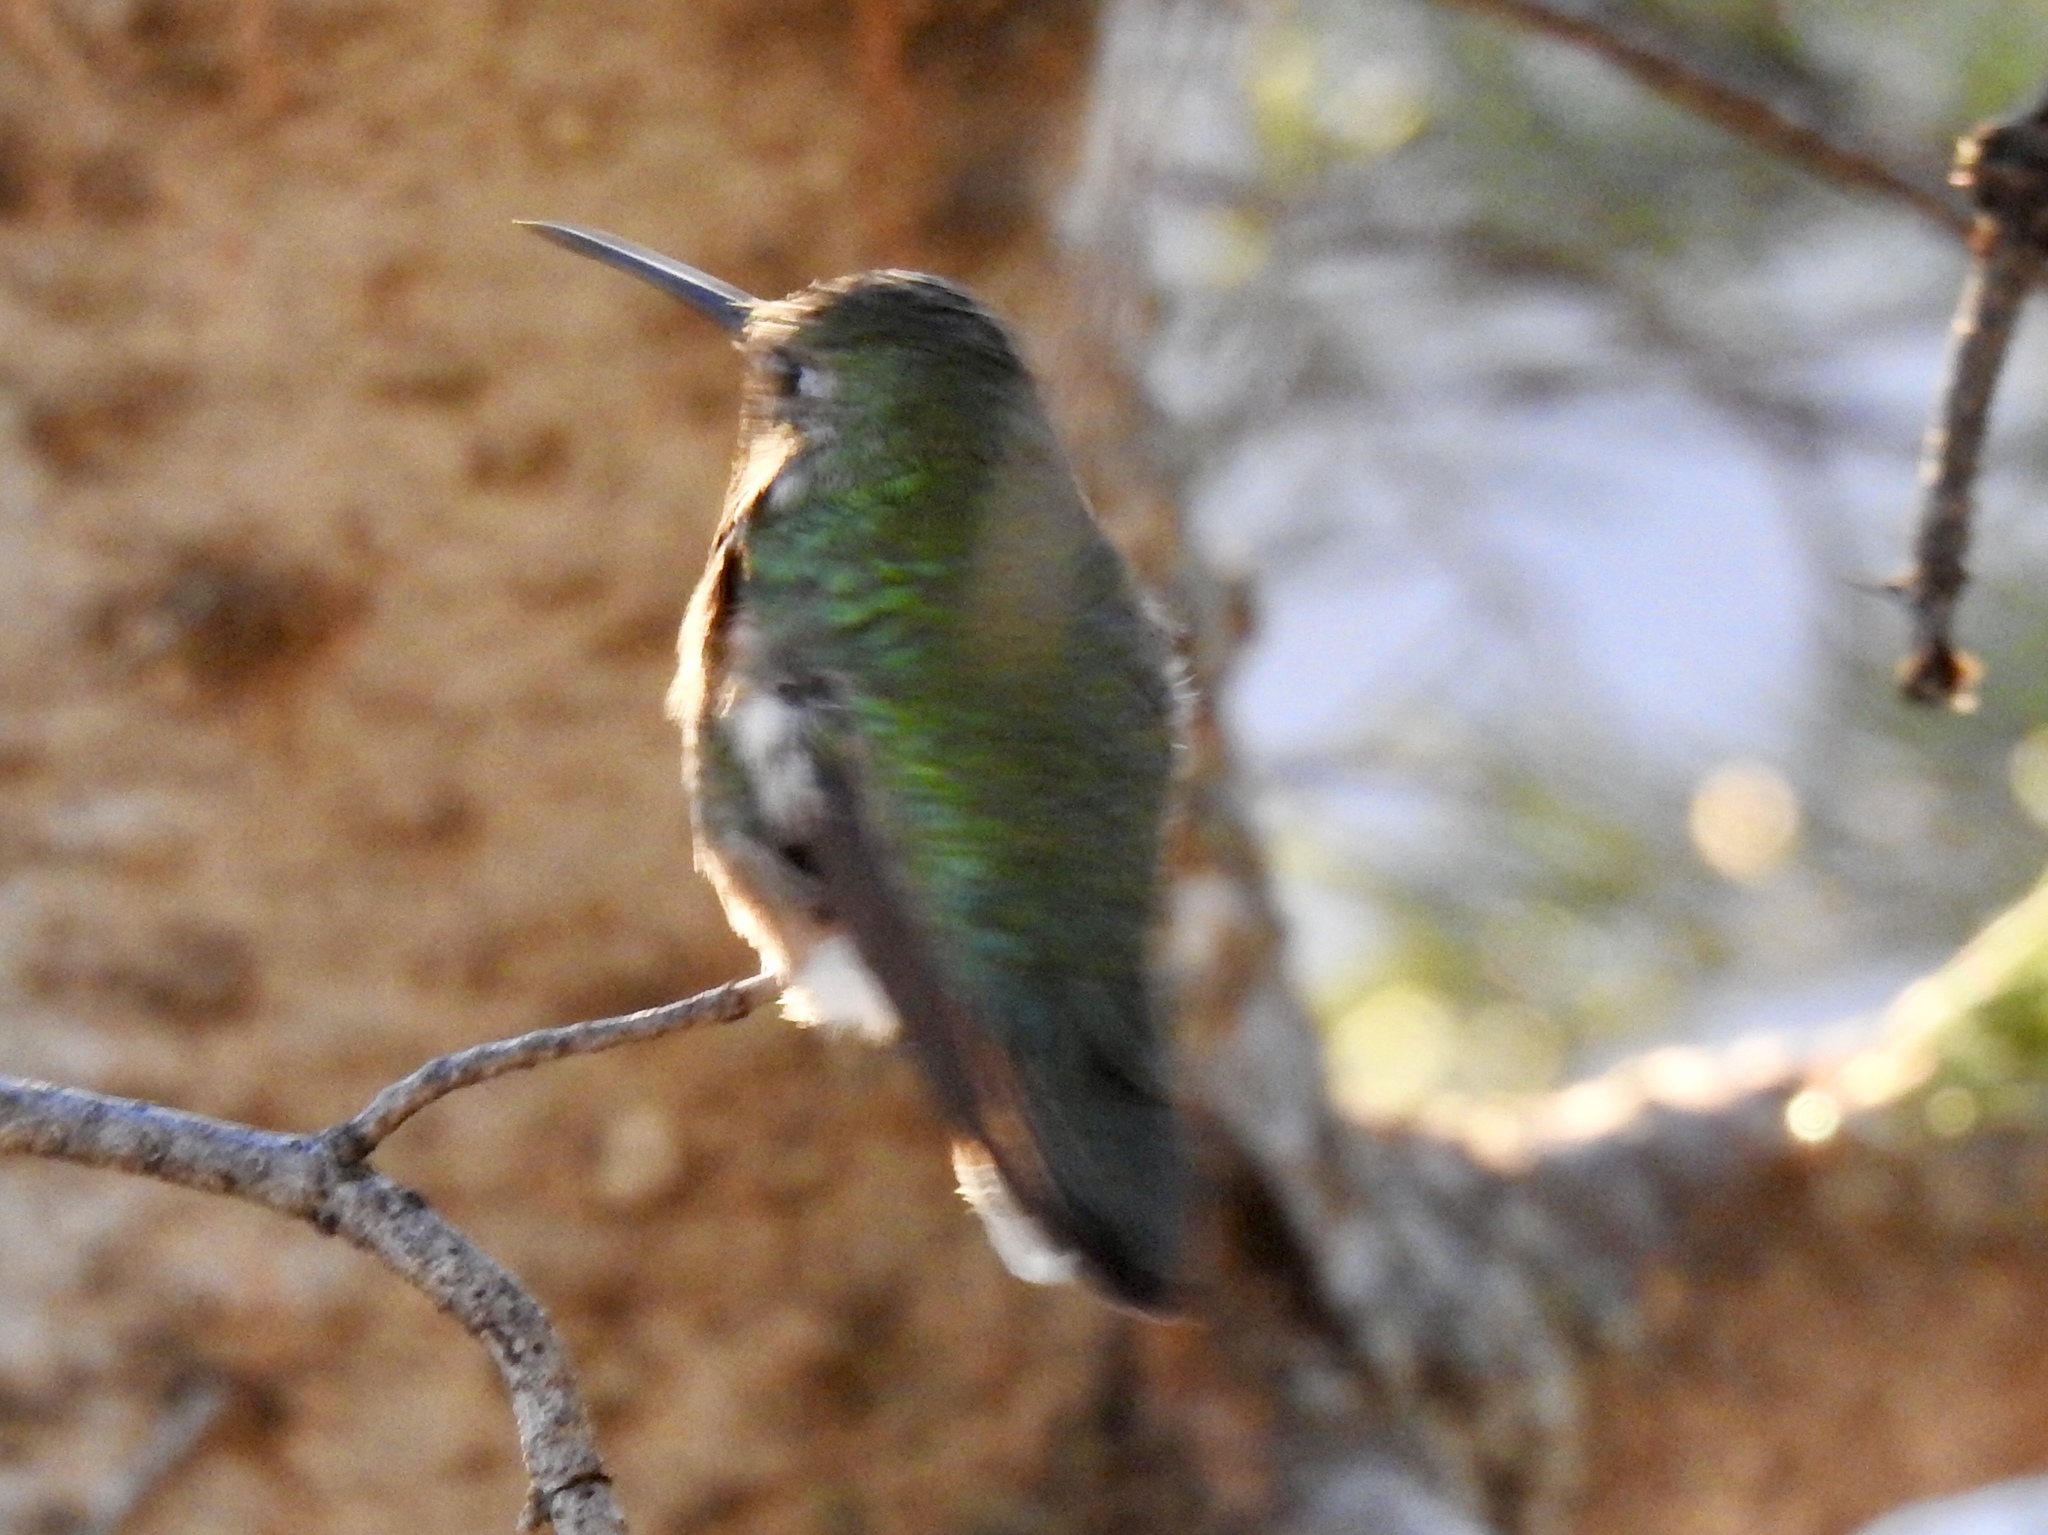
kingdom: Animalia
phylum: Chordata
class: Aves
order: Apodiformes
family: Trochilidae
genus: Selasphorus
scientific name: Selasphorus platycercus
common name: Broad-tailed hummingbird
